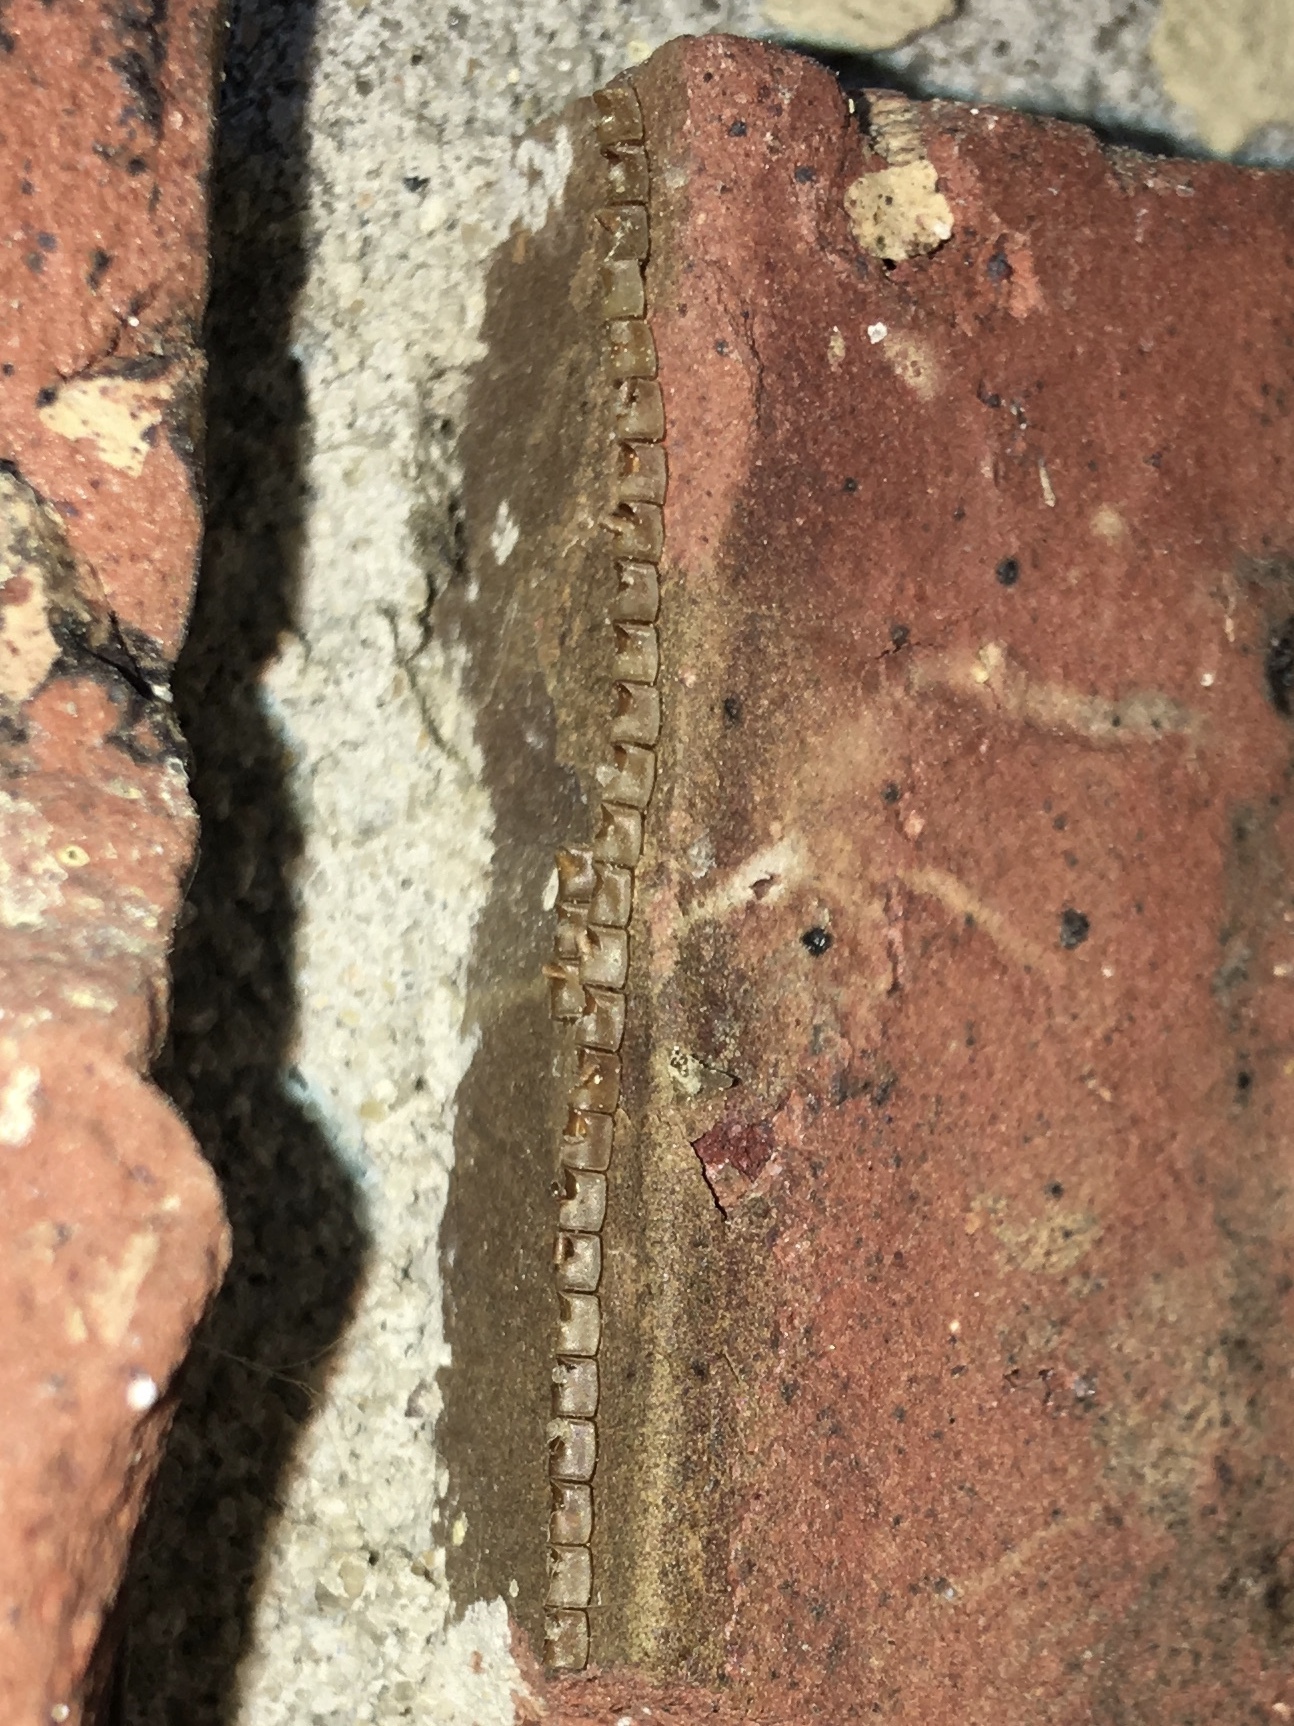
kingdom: Animalia
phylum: Arthropoda
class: Insecta
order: Hemiptera
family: Coreidae
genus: Leptoglossus
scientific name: Leptoglossus
